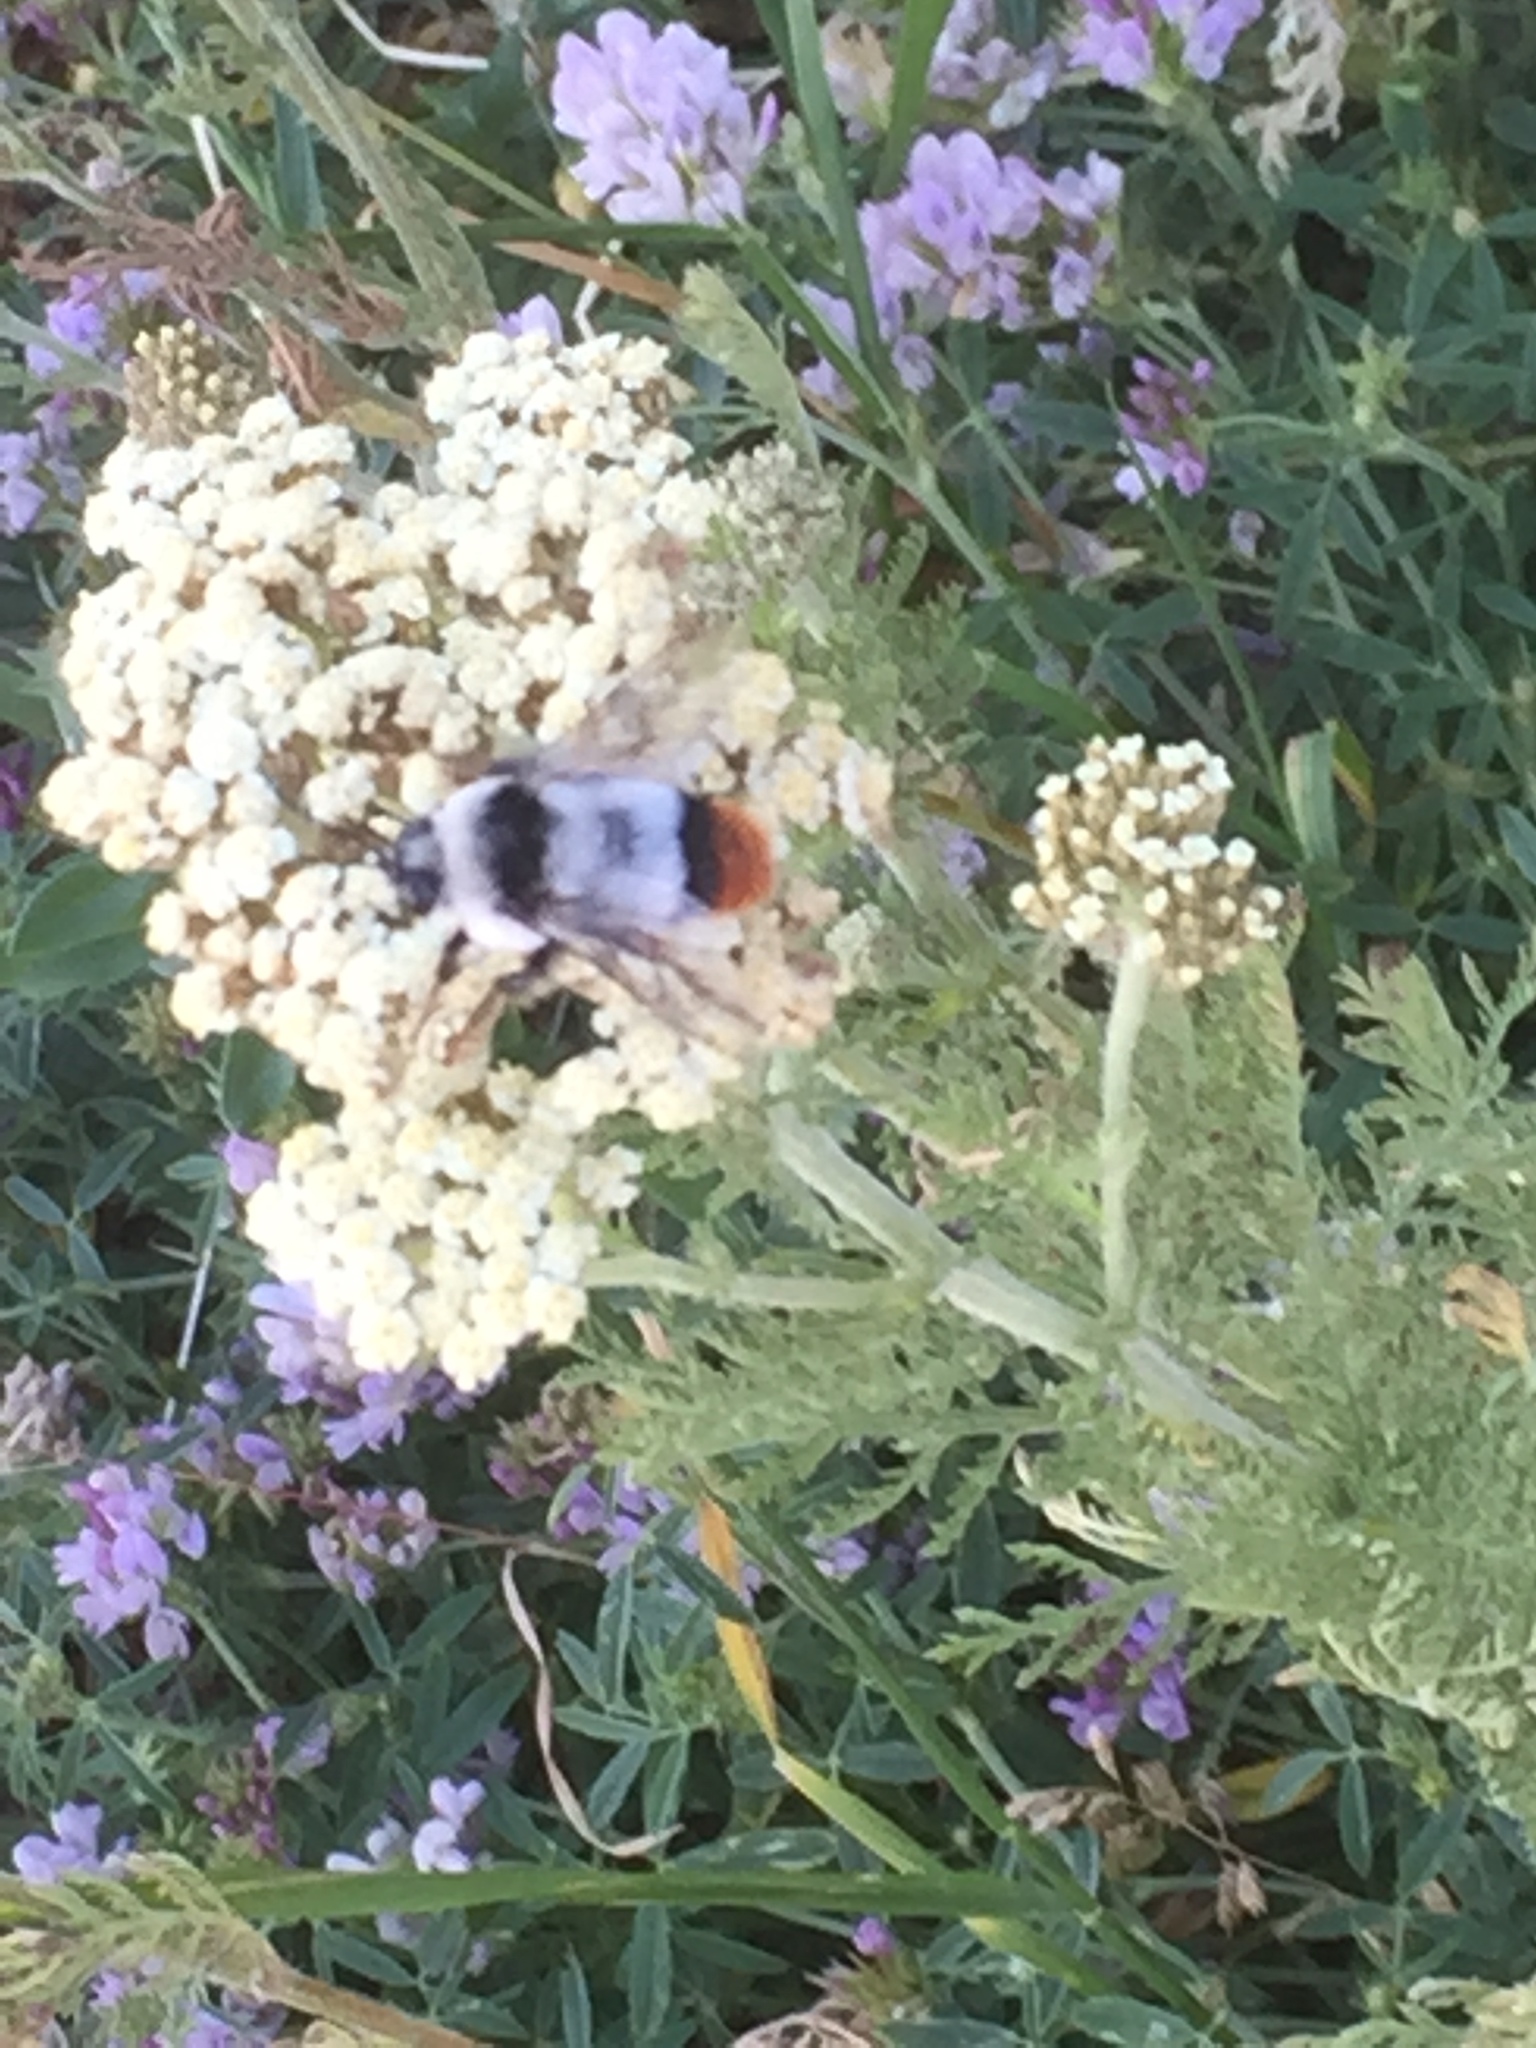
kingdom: Plantae
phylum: Tracheophyta
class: Magnoliopsida
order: Fabales
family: Fabaceae
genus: Medicago
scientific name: Medicago sativa
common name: Alfalfa
